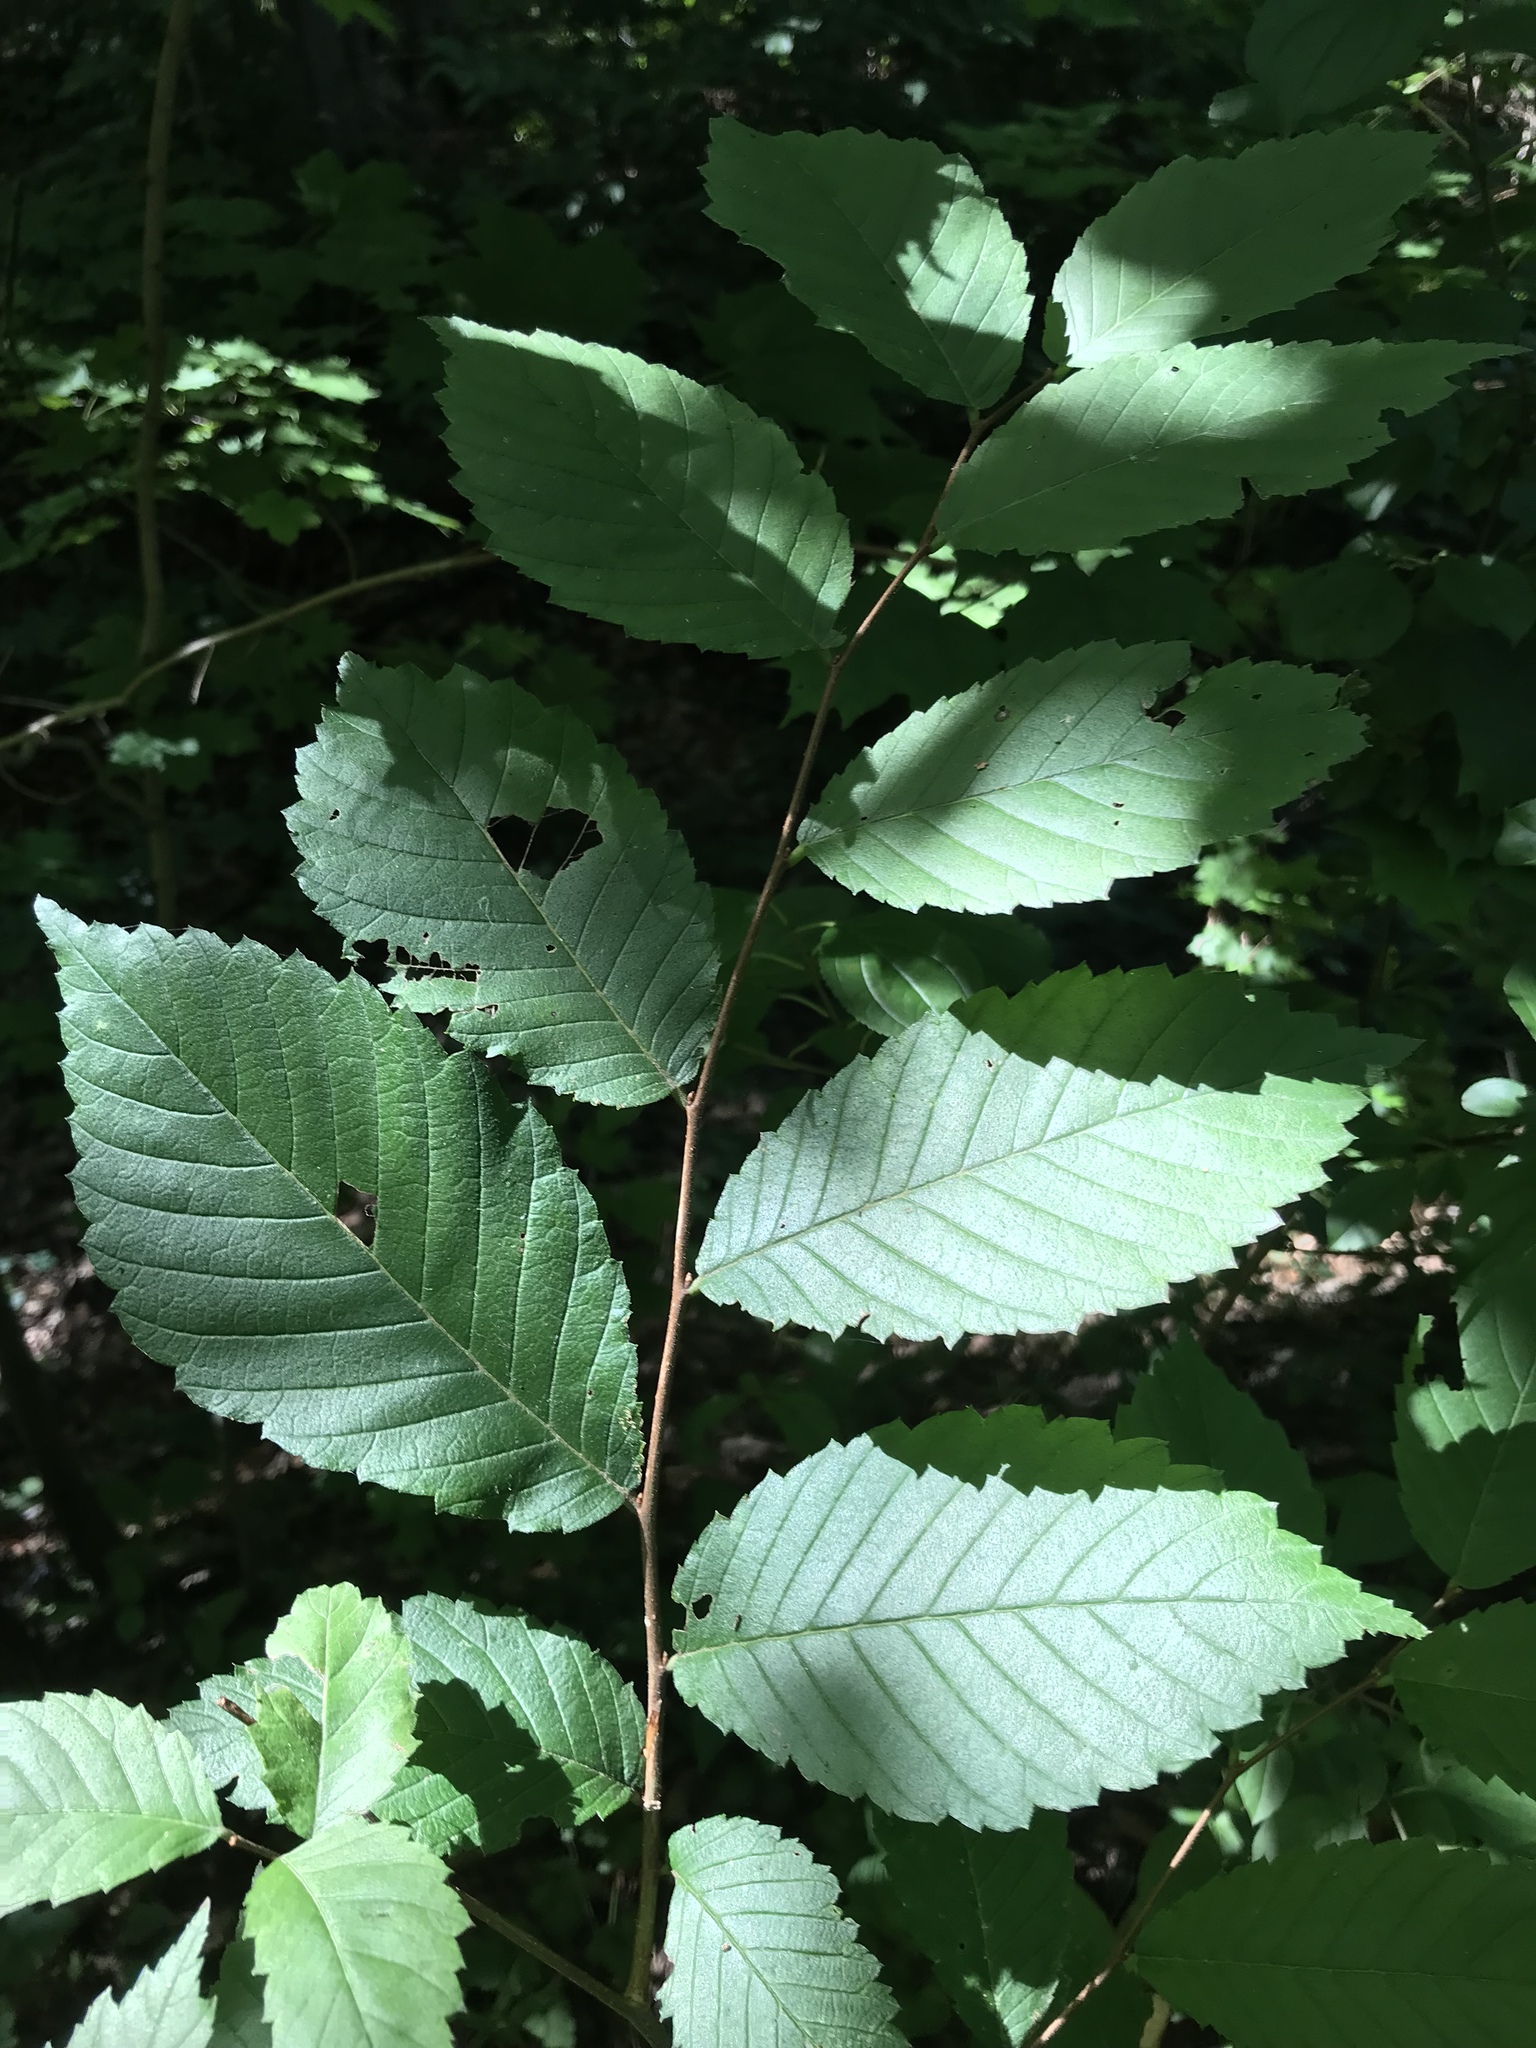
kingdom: Plantae
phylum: Tracheophyta
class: Magnoliopsida
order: Rosales
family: Ulmaceae
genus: Ulmus
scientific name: Ulmus americana
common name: American elm
